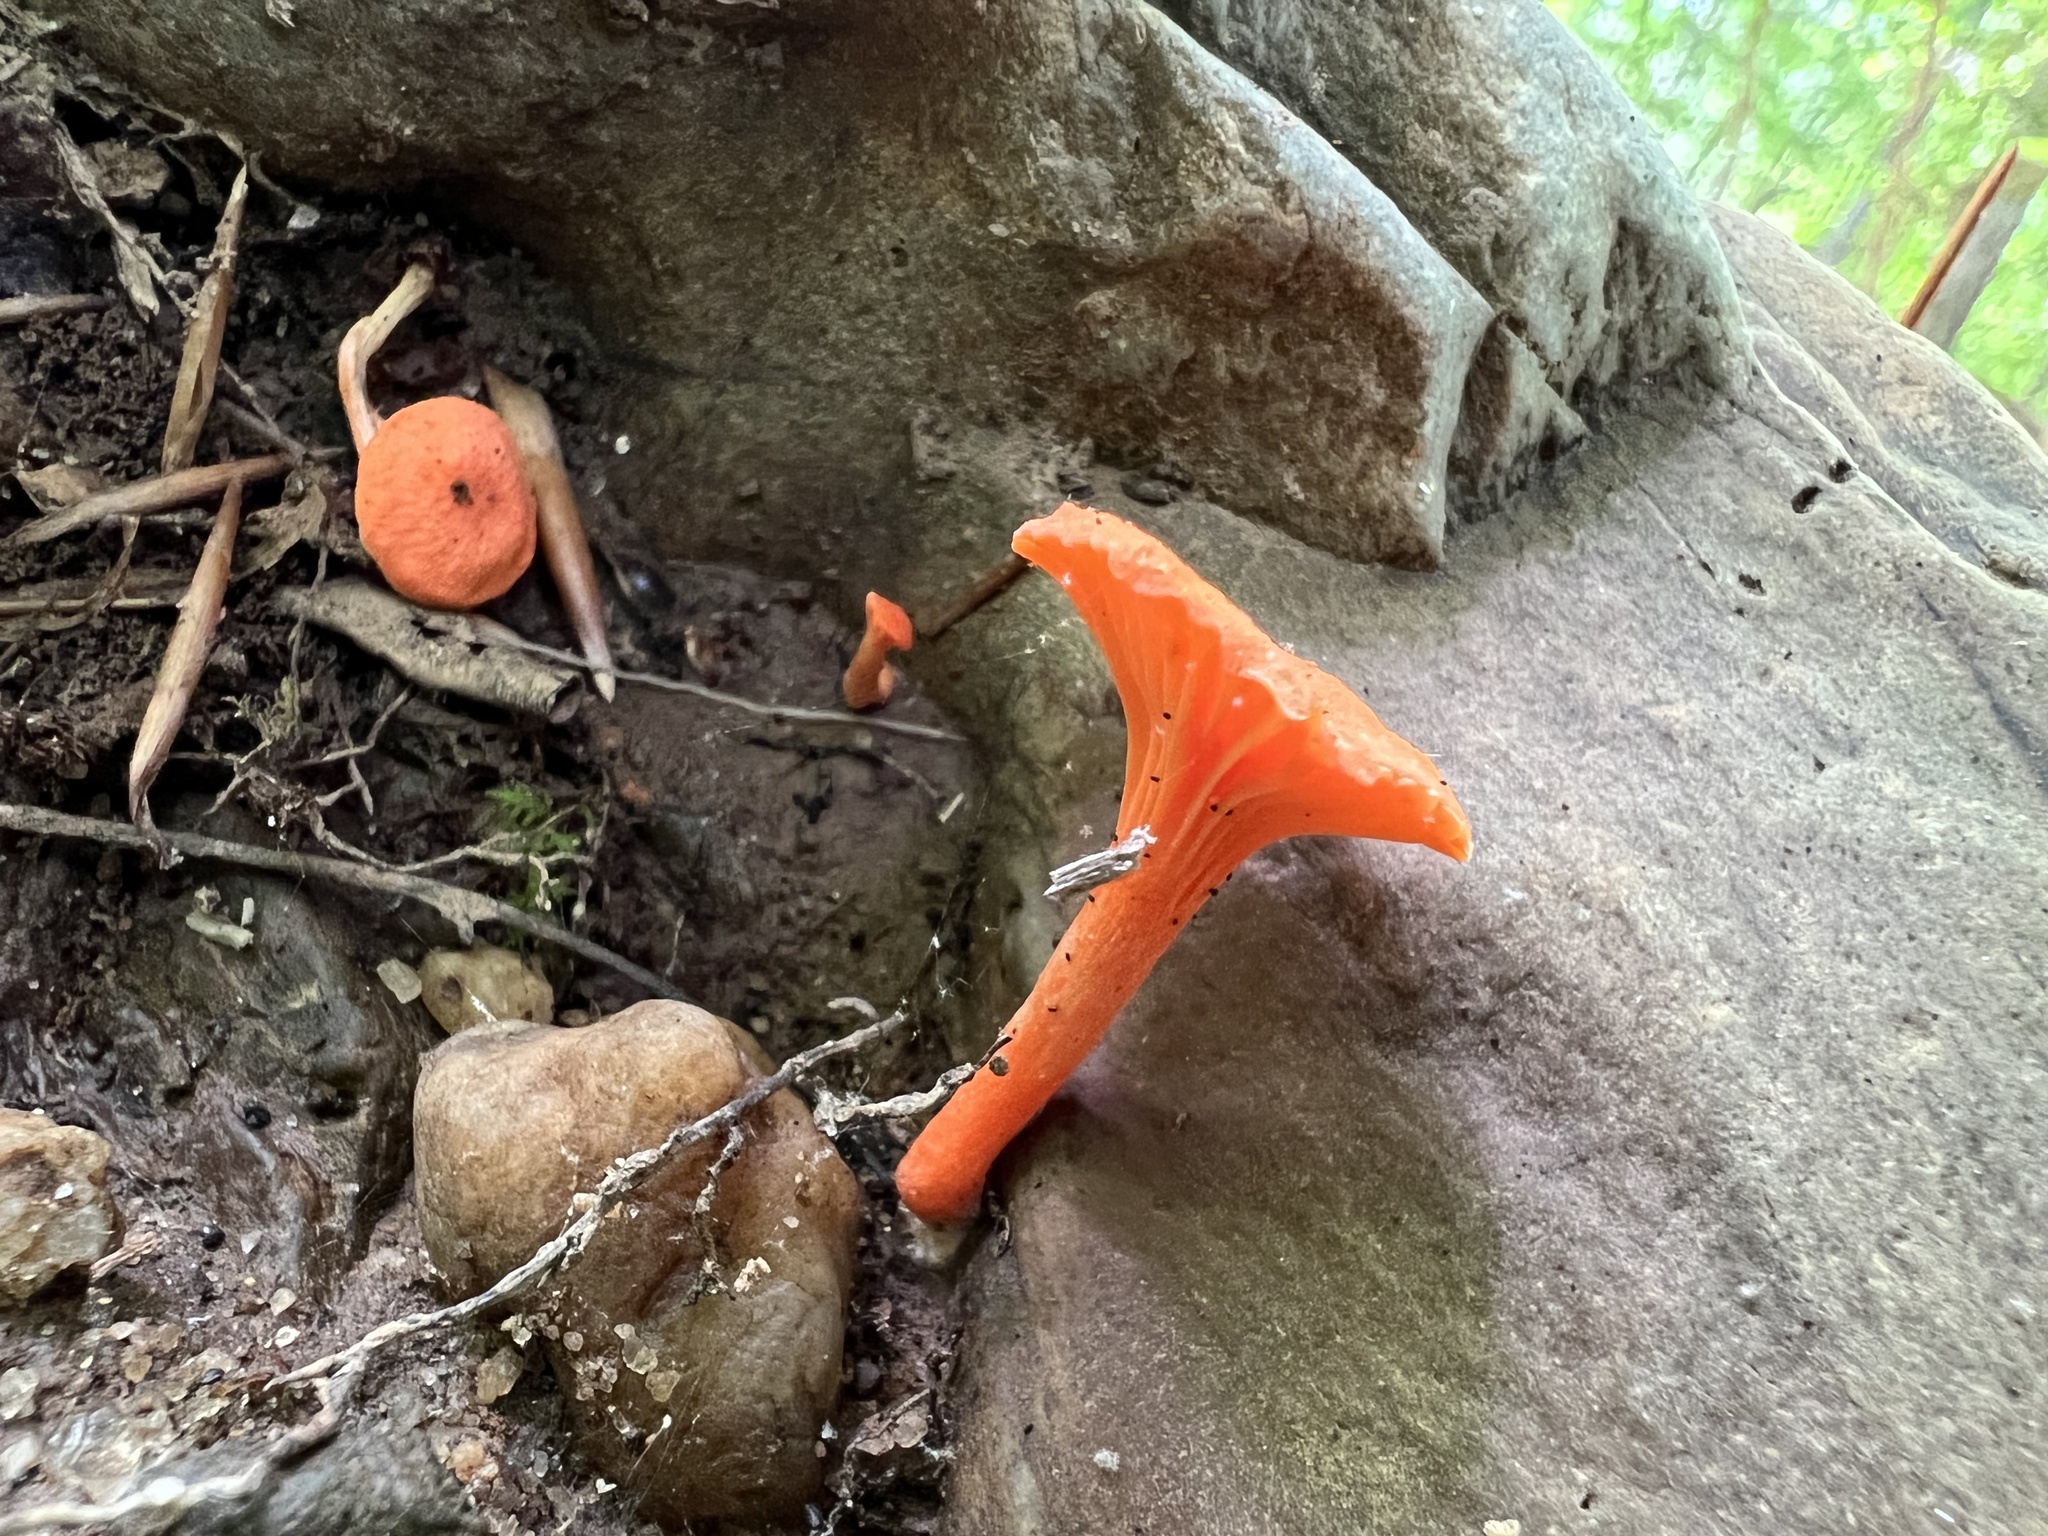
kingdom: Fungi
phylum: Basidiomycota
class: Agaricomycetes
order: Cantharellales
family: Hydnaceae
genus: Cantharellus
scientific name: Cantharellus cinnabarinus
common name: Cinnabar chanterelle
